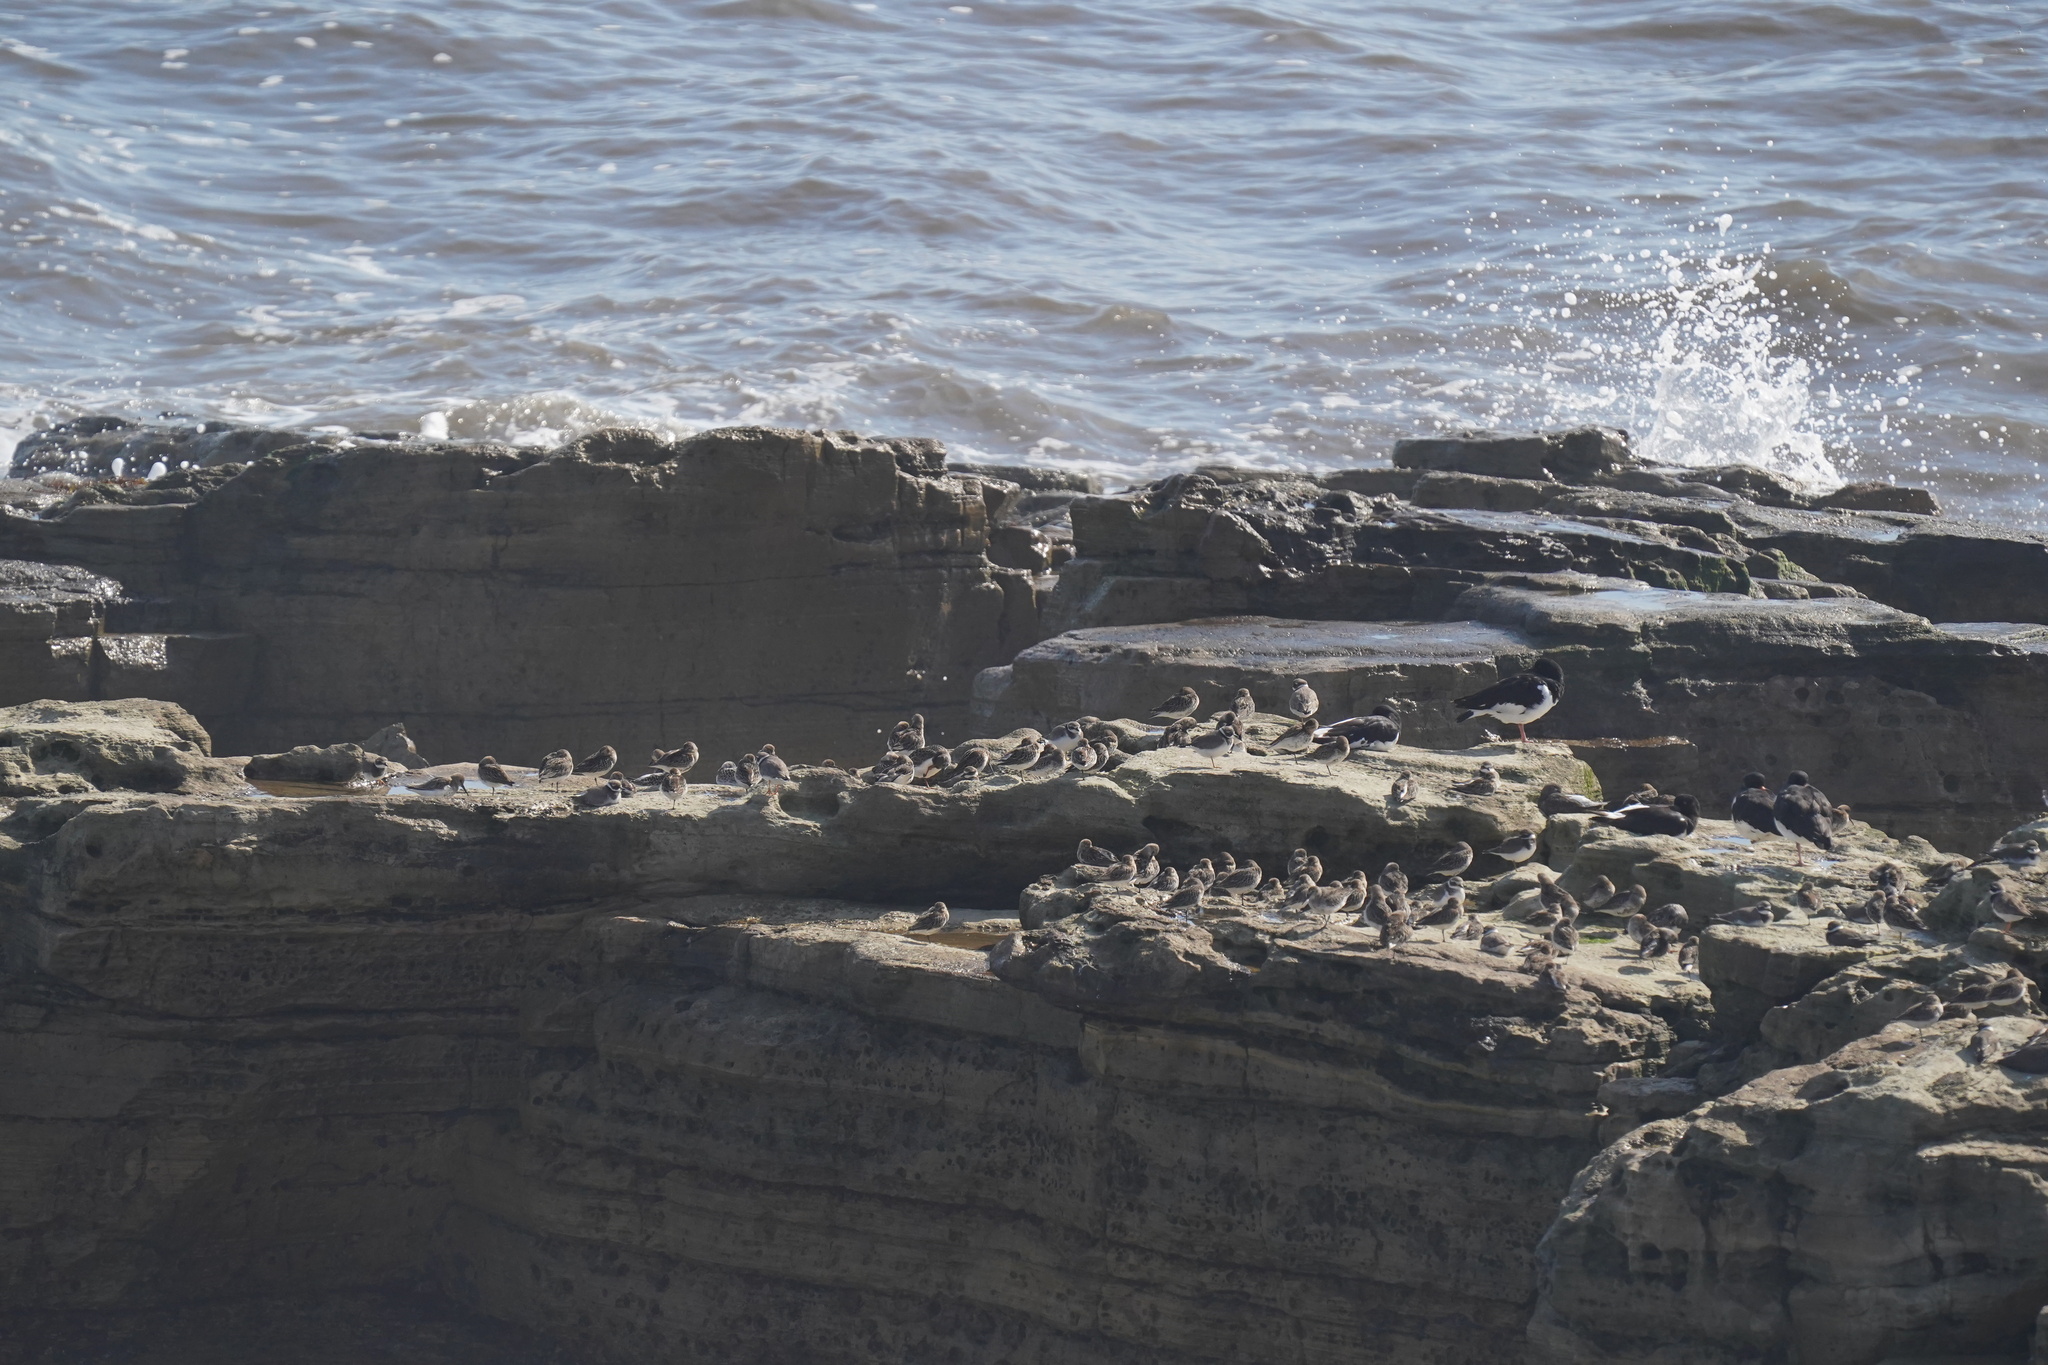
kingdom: Animalia
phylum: Chordata
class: Aves
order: Charadriiformes
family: Scolopacidae
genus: Calidris
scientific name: Calidris alba
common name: Sanderling
